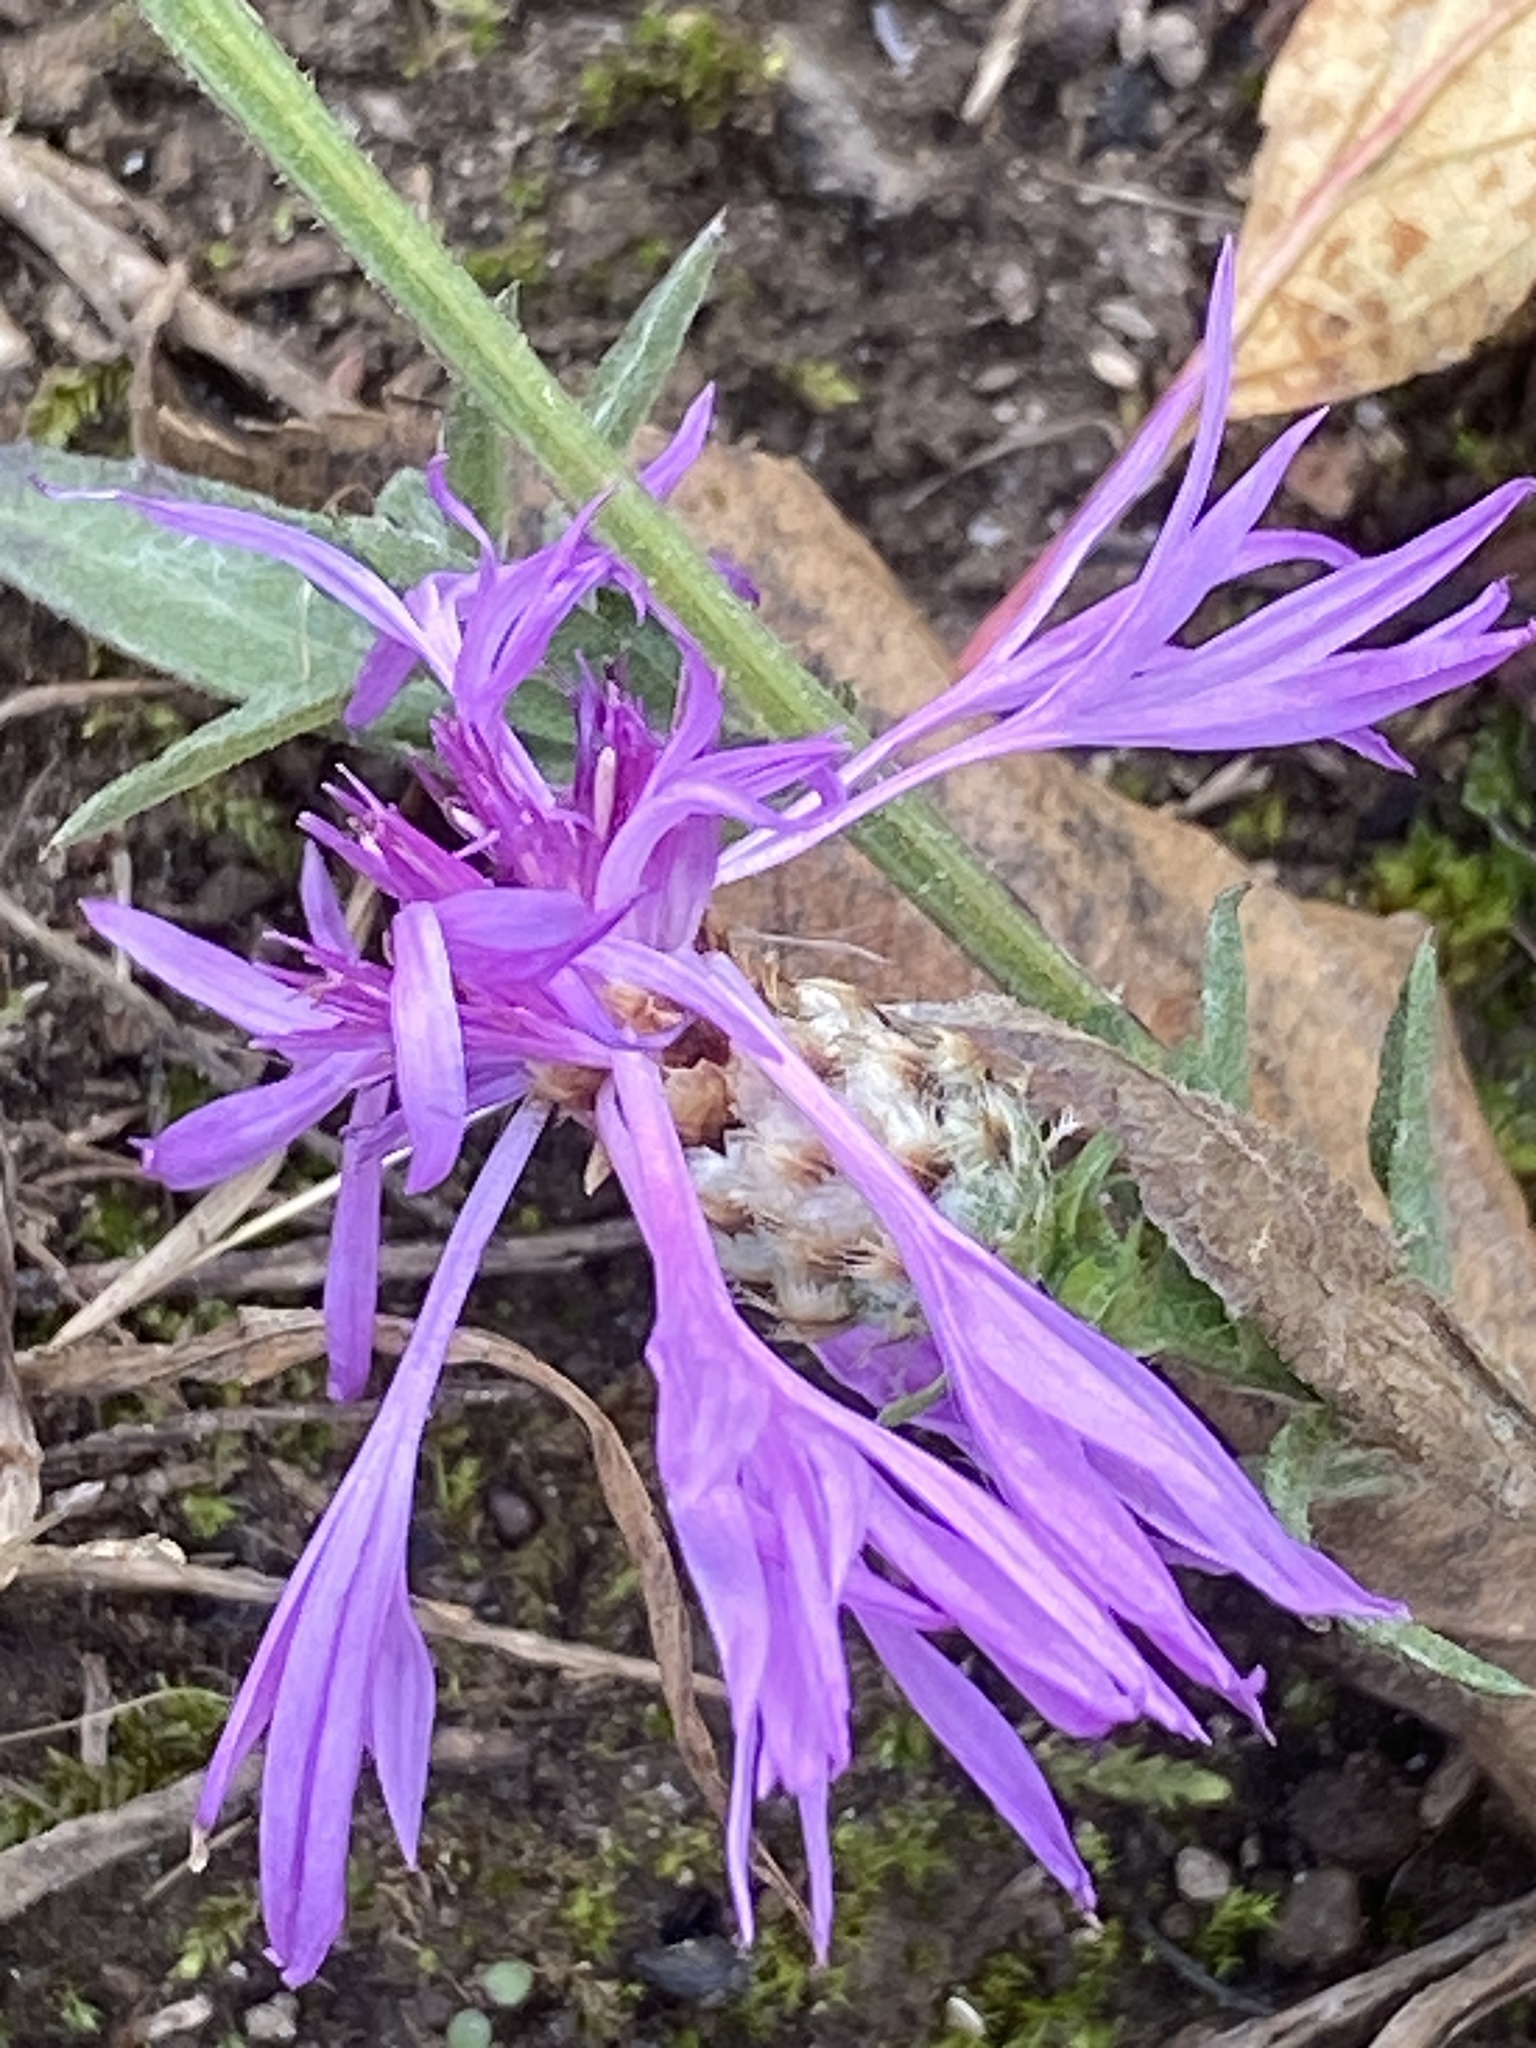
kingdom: Plantae
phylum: Tracheophyta
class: Magnoliopsida
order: Asterales
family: Asteraceae
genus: Centaurea
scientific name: Centaurea jacea
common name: Brown knapweed
